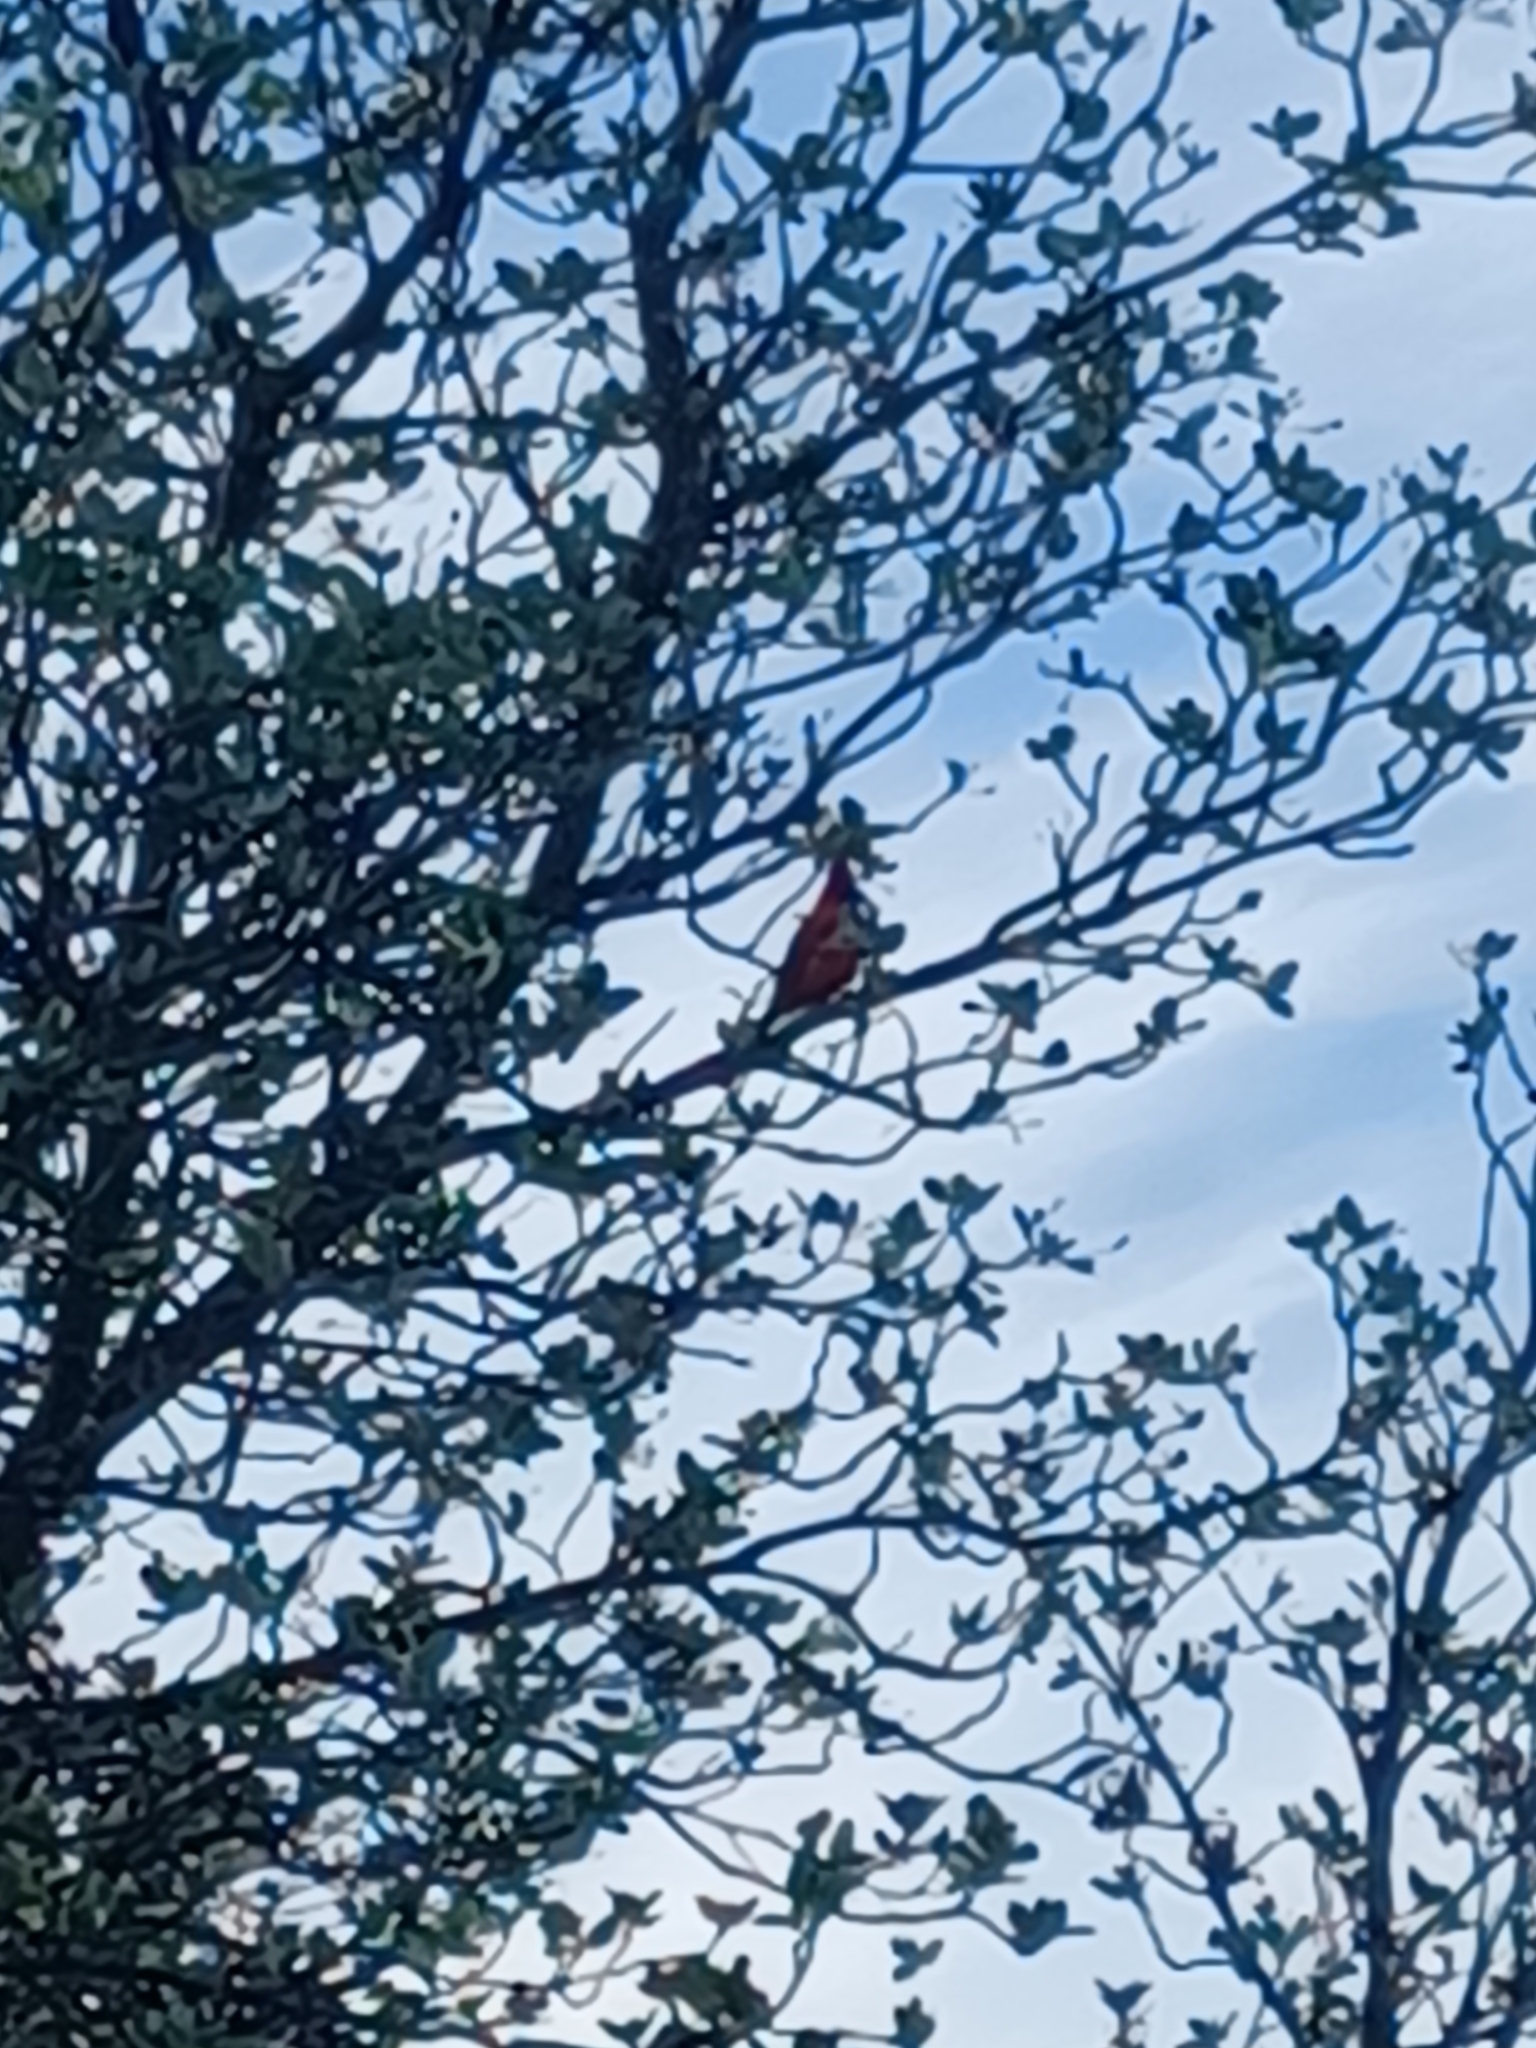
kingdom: Animalia
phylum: Chordata
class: Aves
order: Passeriformes
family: Cardinalidae
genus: Cardinalis
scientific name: Cardinalis cardinalis
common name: Northern cardinal
